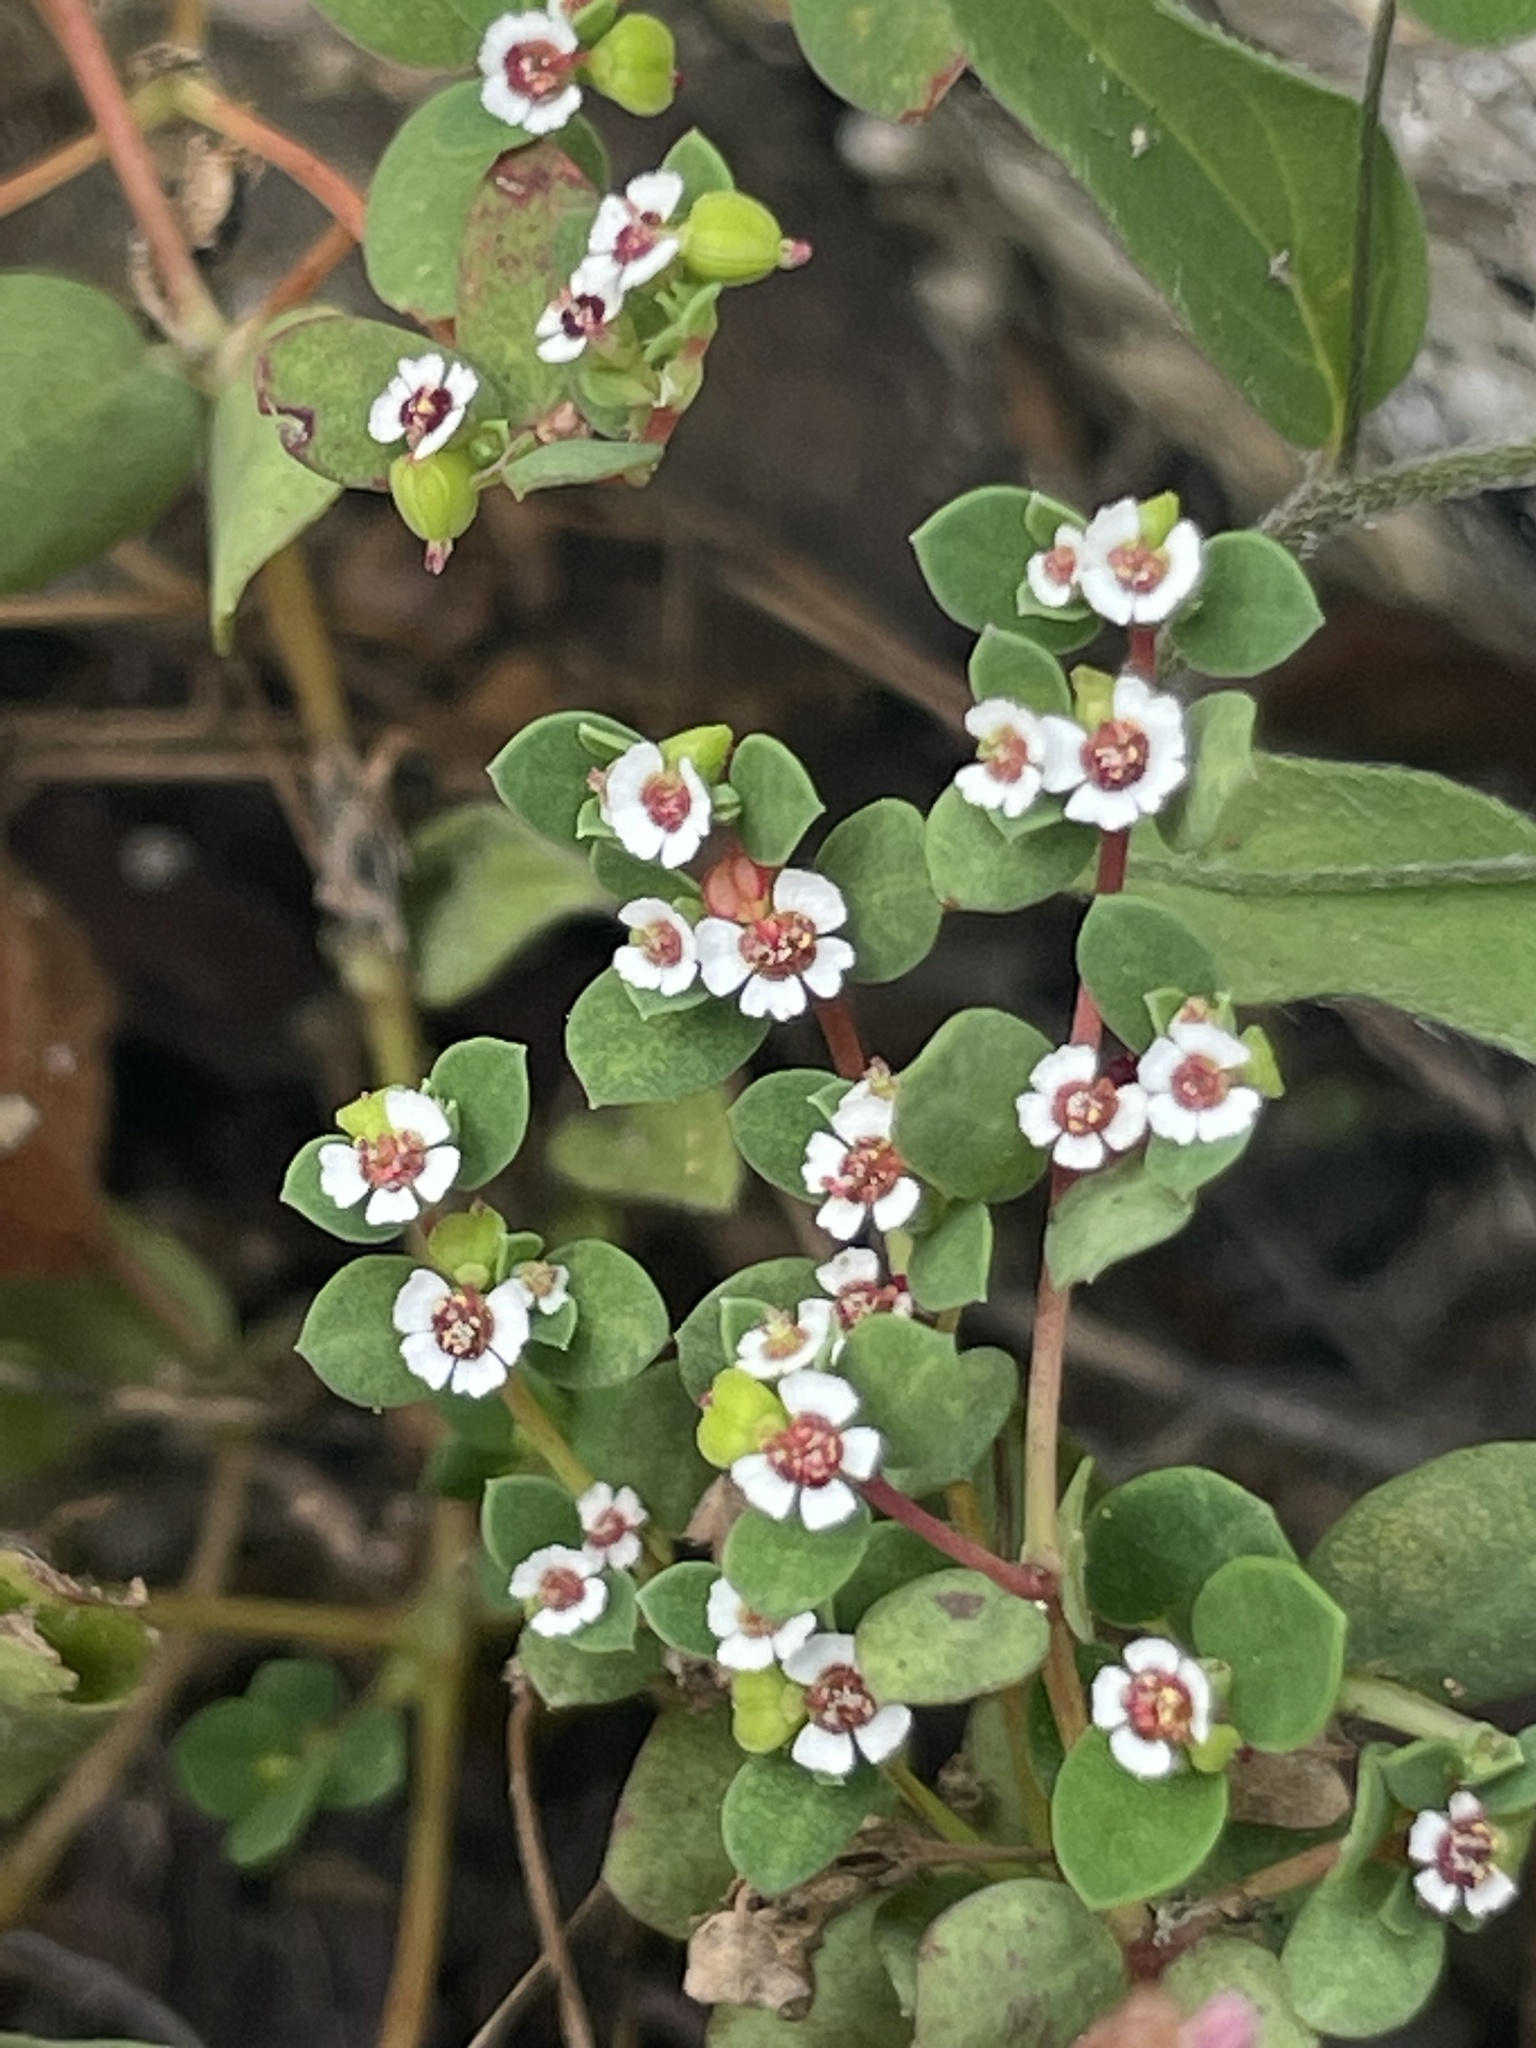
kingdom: Plantae
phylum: Tracheophyta
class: Magnoliopsida
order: Malpighiales
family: Euphorbiaceae
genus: Euphorbia
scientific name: Euphorbia polycarpa
